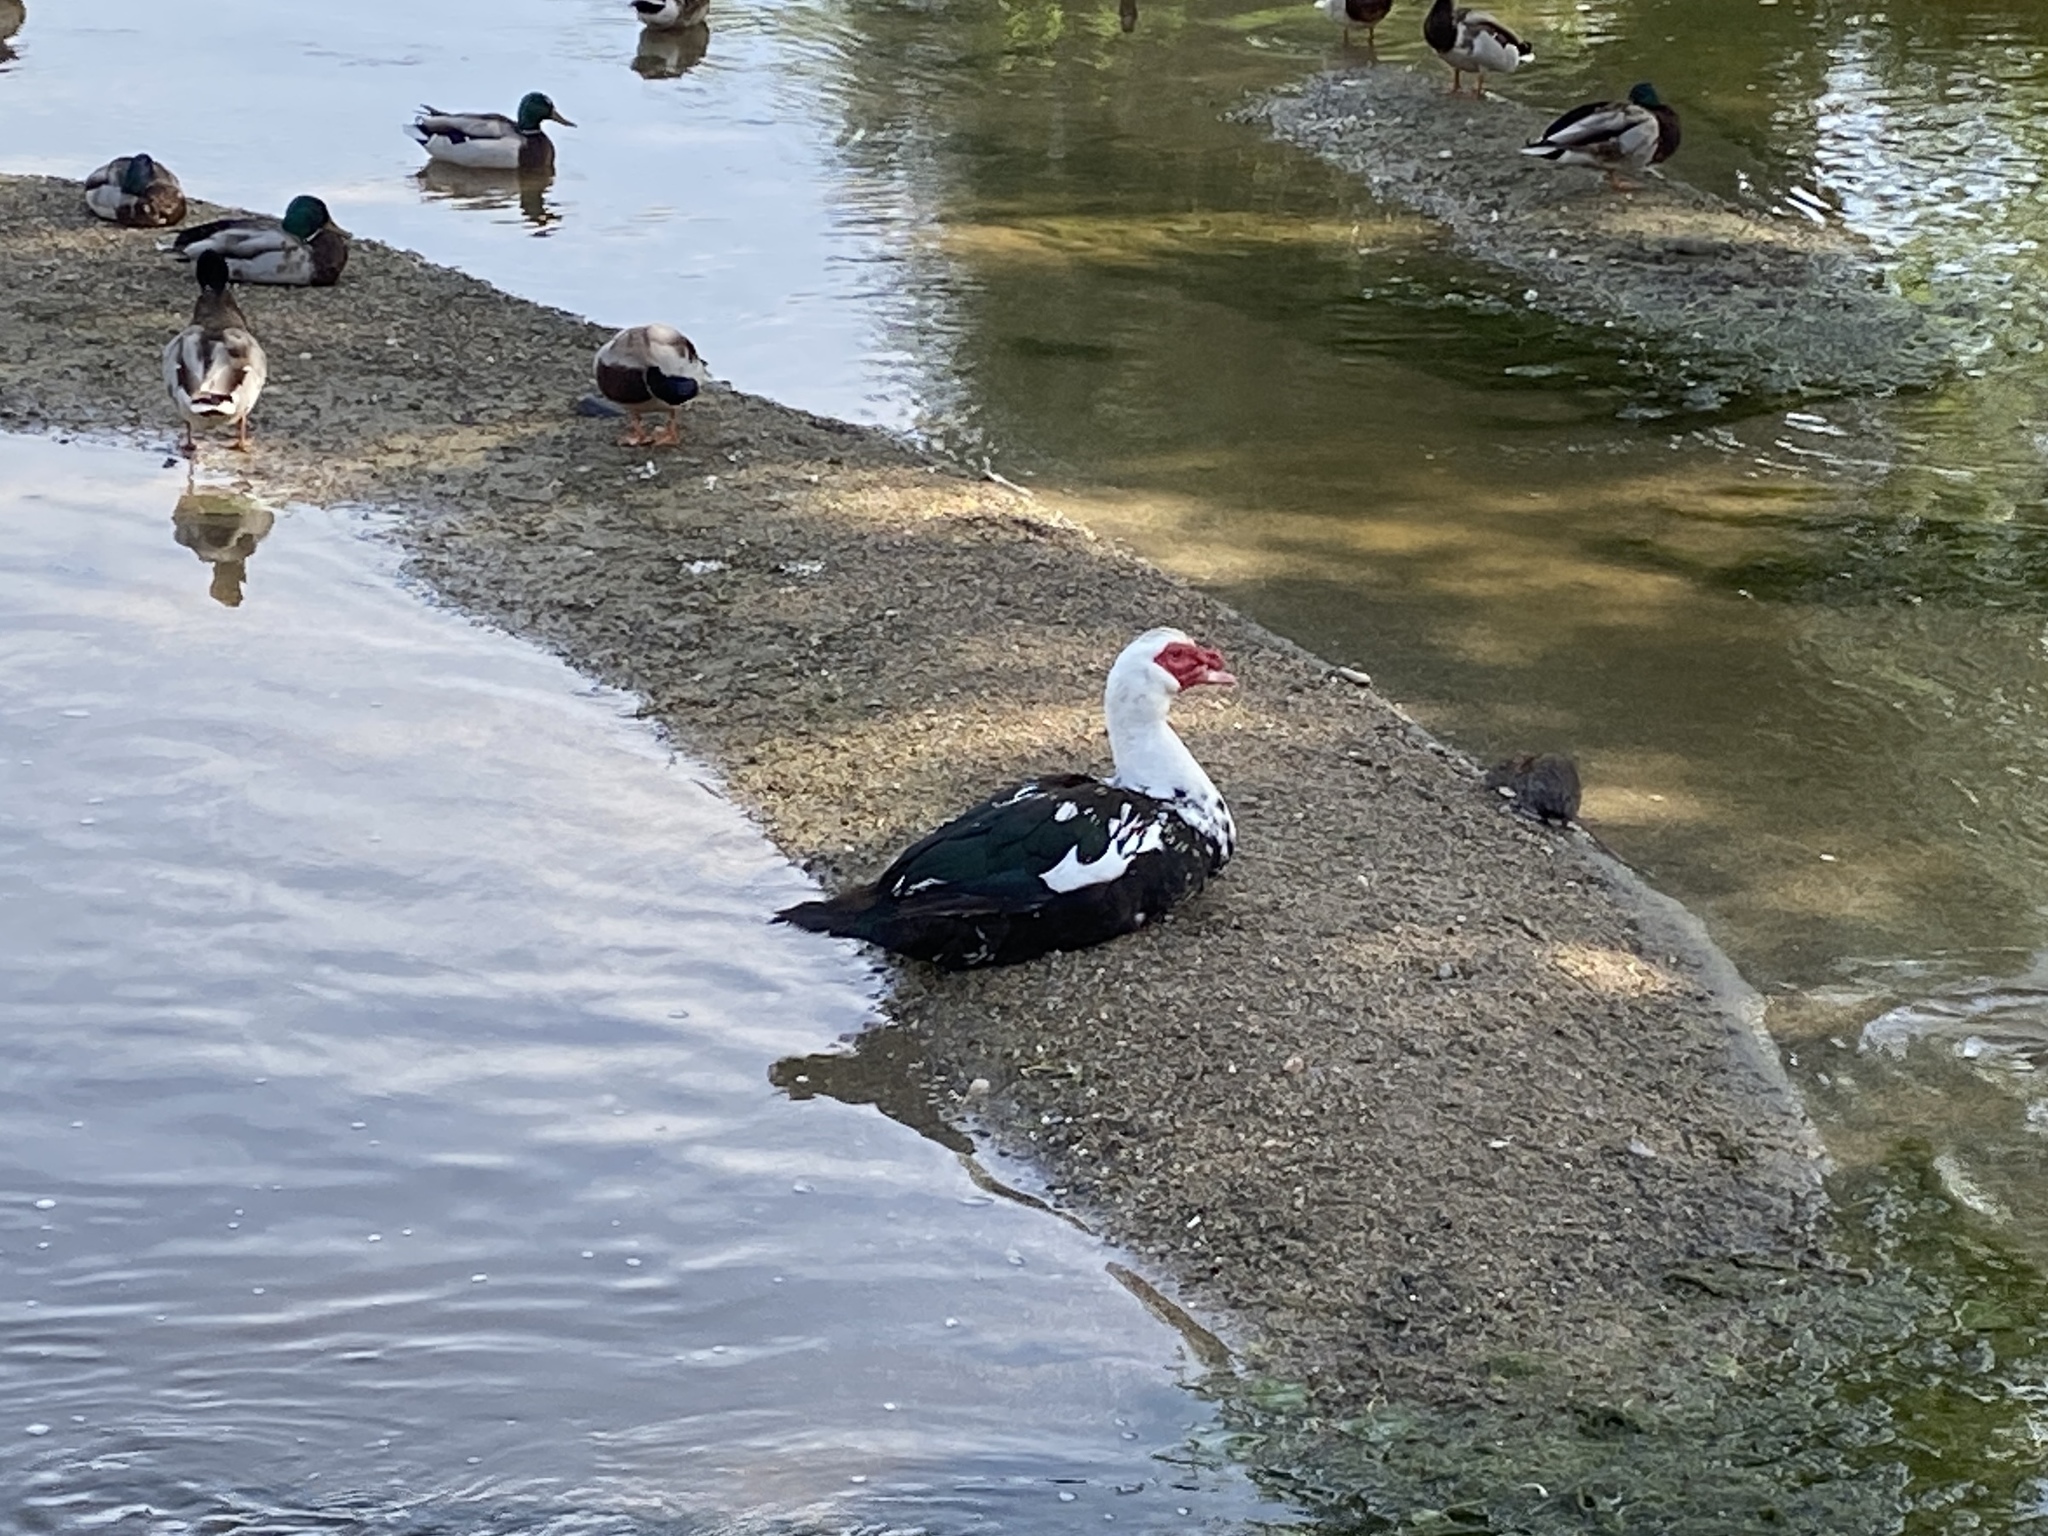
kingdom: Animalia
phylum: Chordata
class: Aves
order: Anseriformes
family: Anatidae
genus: Cairina
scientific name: Cairina moschata
